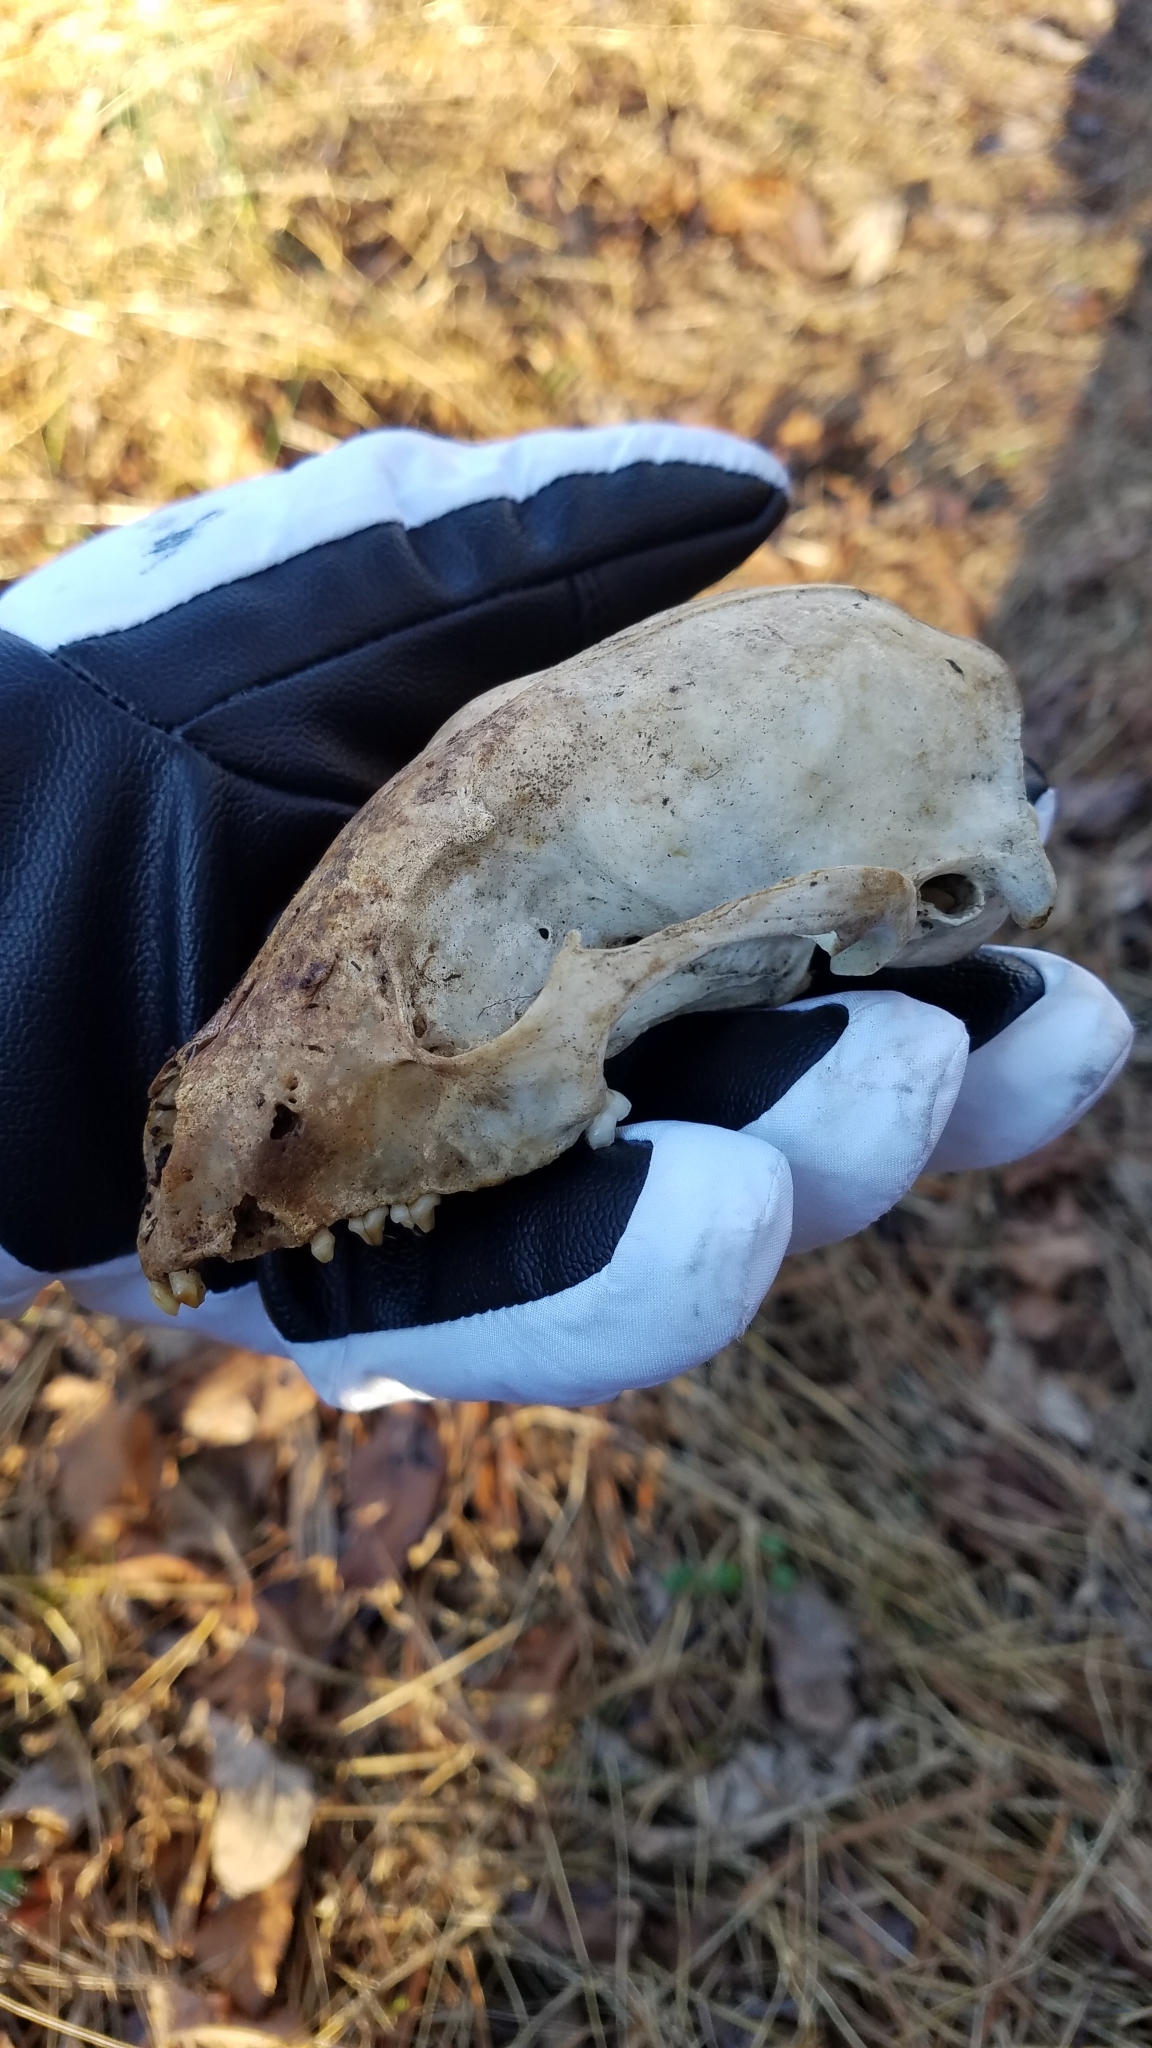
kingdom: Animalia
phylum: Chordata
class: Mammalia
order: Carnivora
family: Procyonidae
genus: Procyon
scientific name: Procyon lotor
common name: Raccoon
